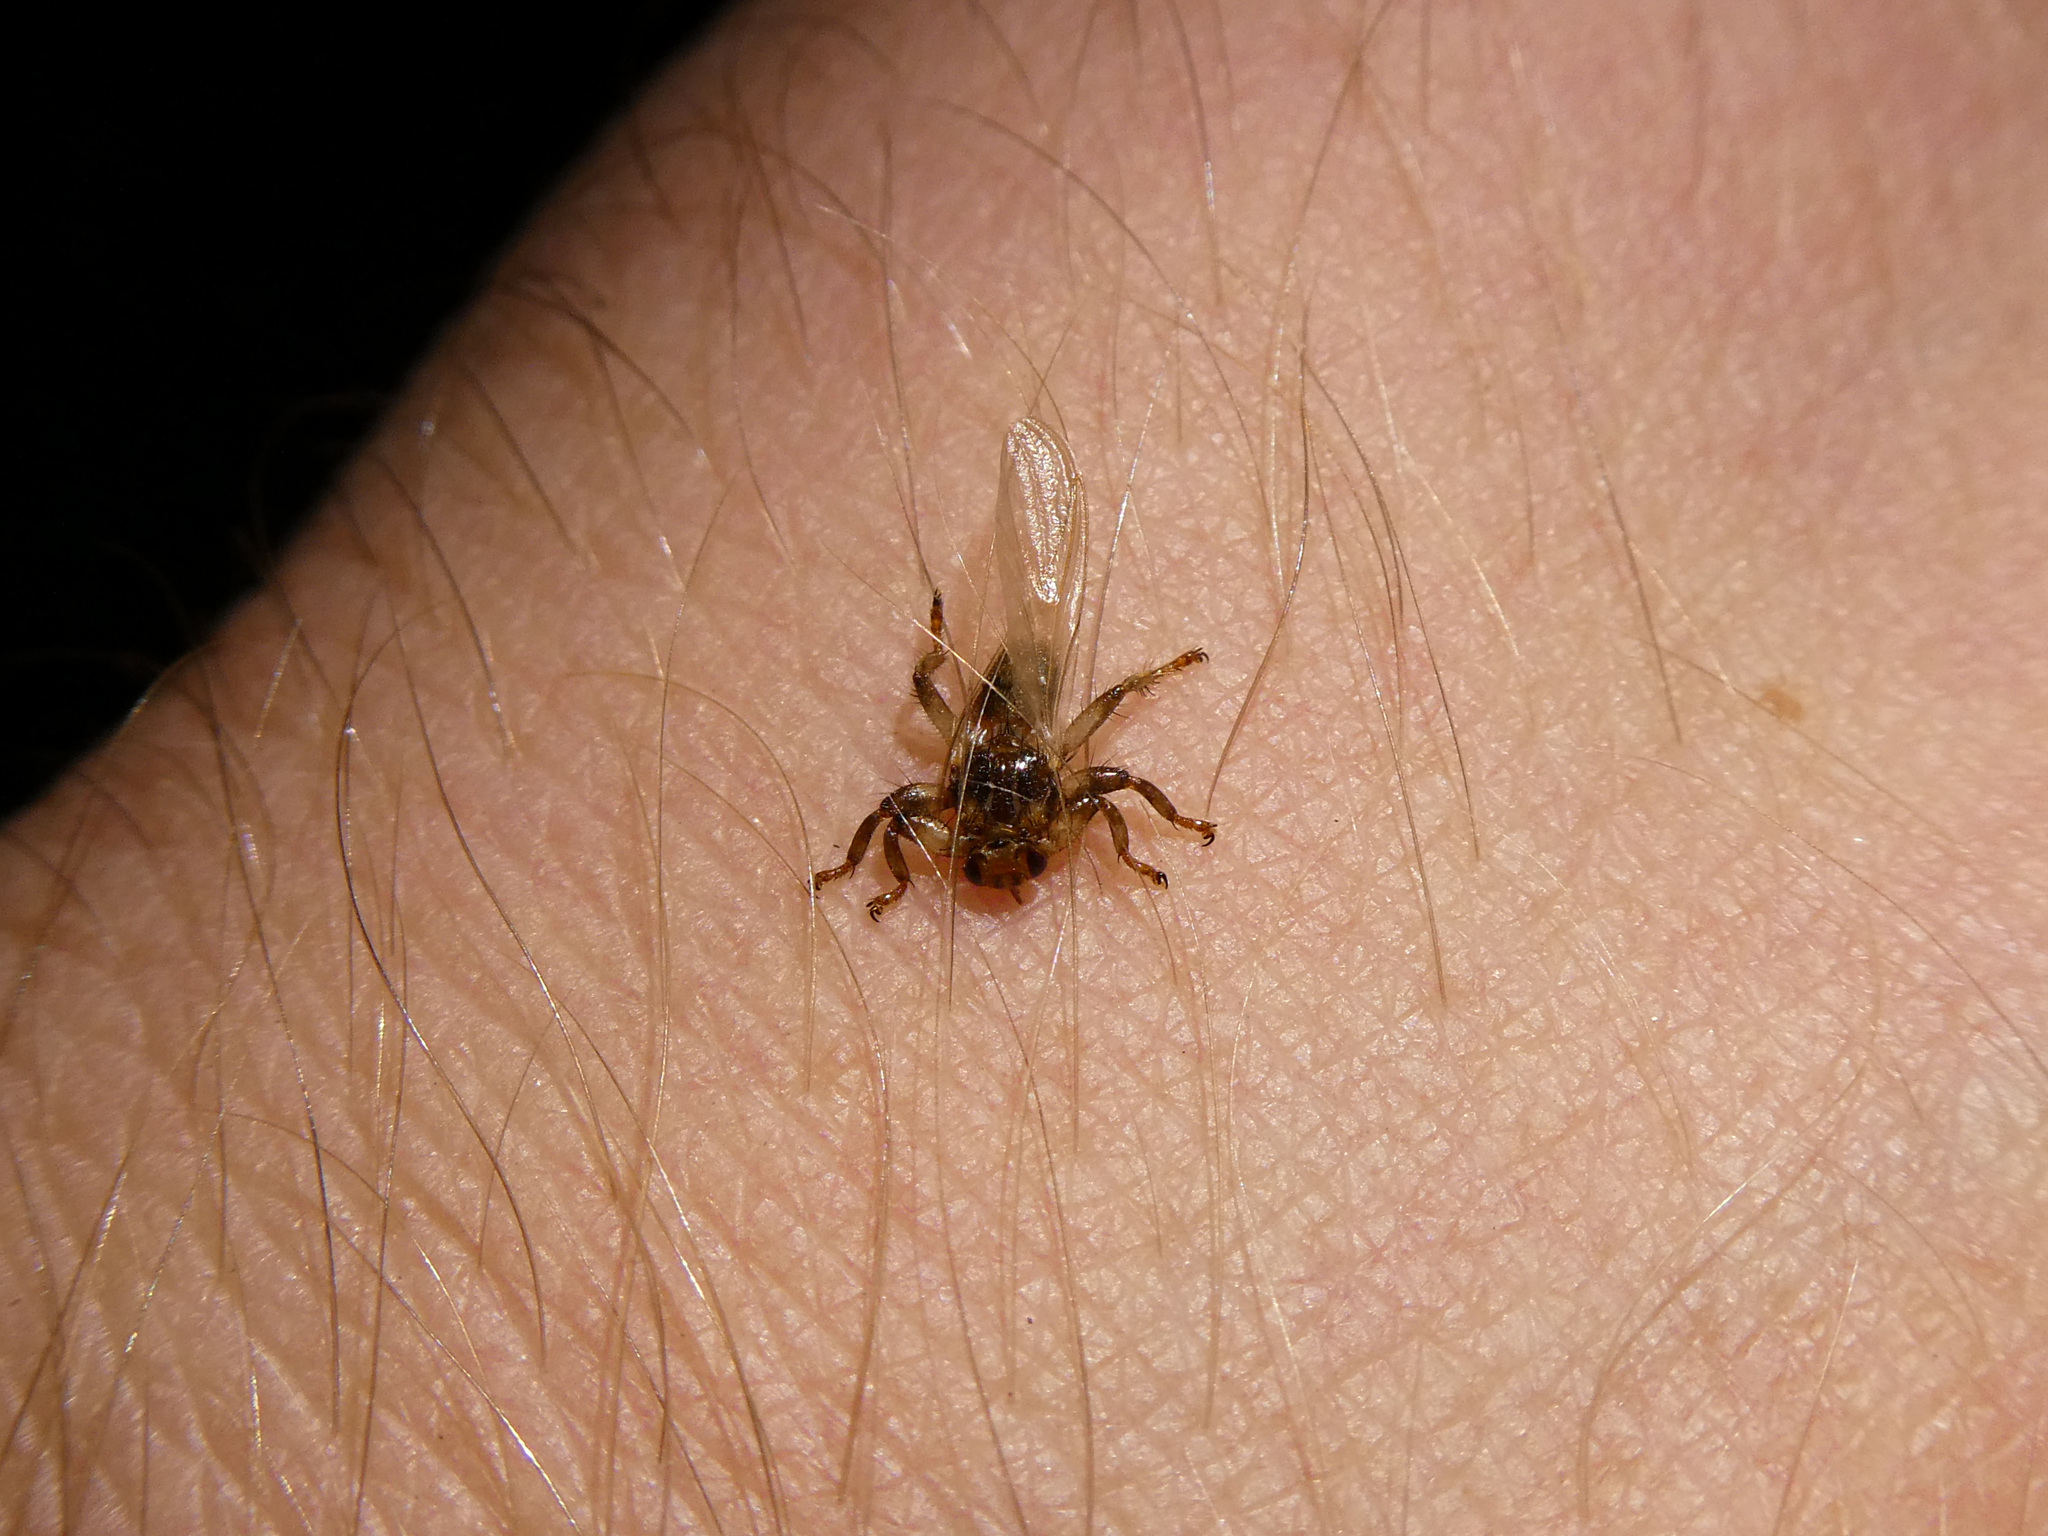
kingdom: Animalia
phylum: Arthropoda
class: Insecta
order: Diptera
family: Hippoboscidae
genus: Lipoptena
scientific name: Lipoptena cervi
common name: Deer ked
